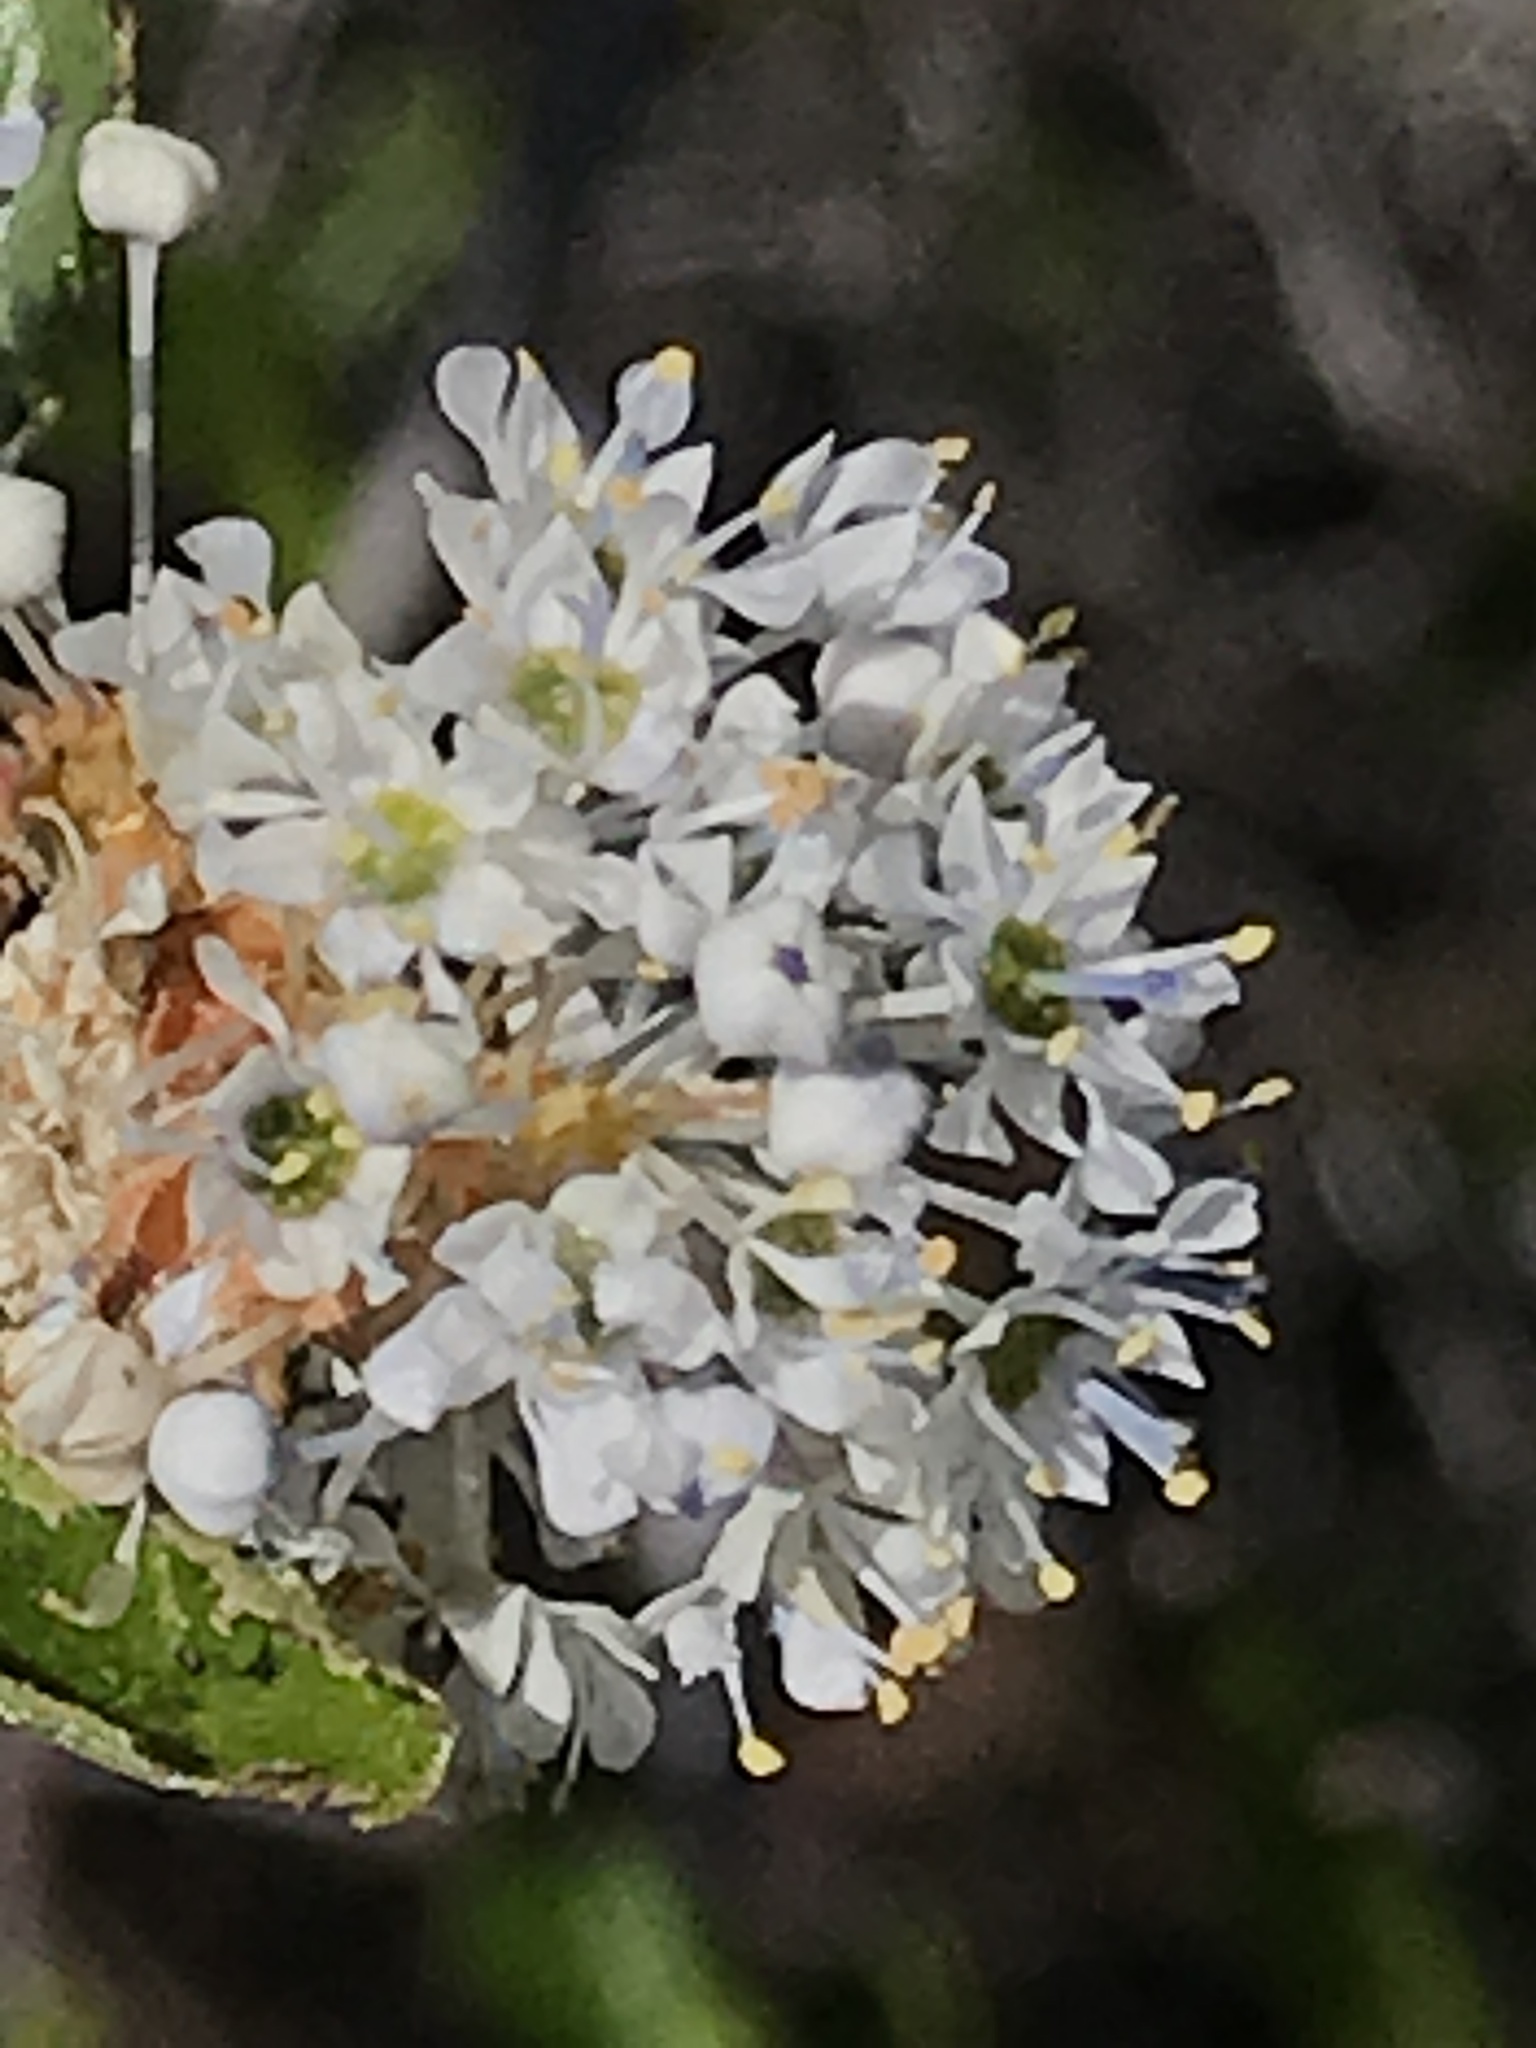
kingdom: Plantae
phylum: Tracheophyta
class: Magnoliopsida
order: Rosales
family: Rhamnaceae
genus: Ceanothus
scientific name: Ceanothus oliganthus
